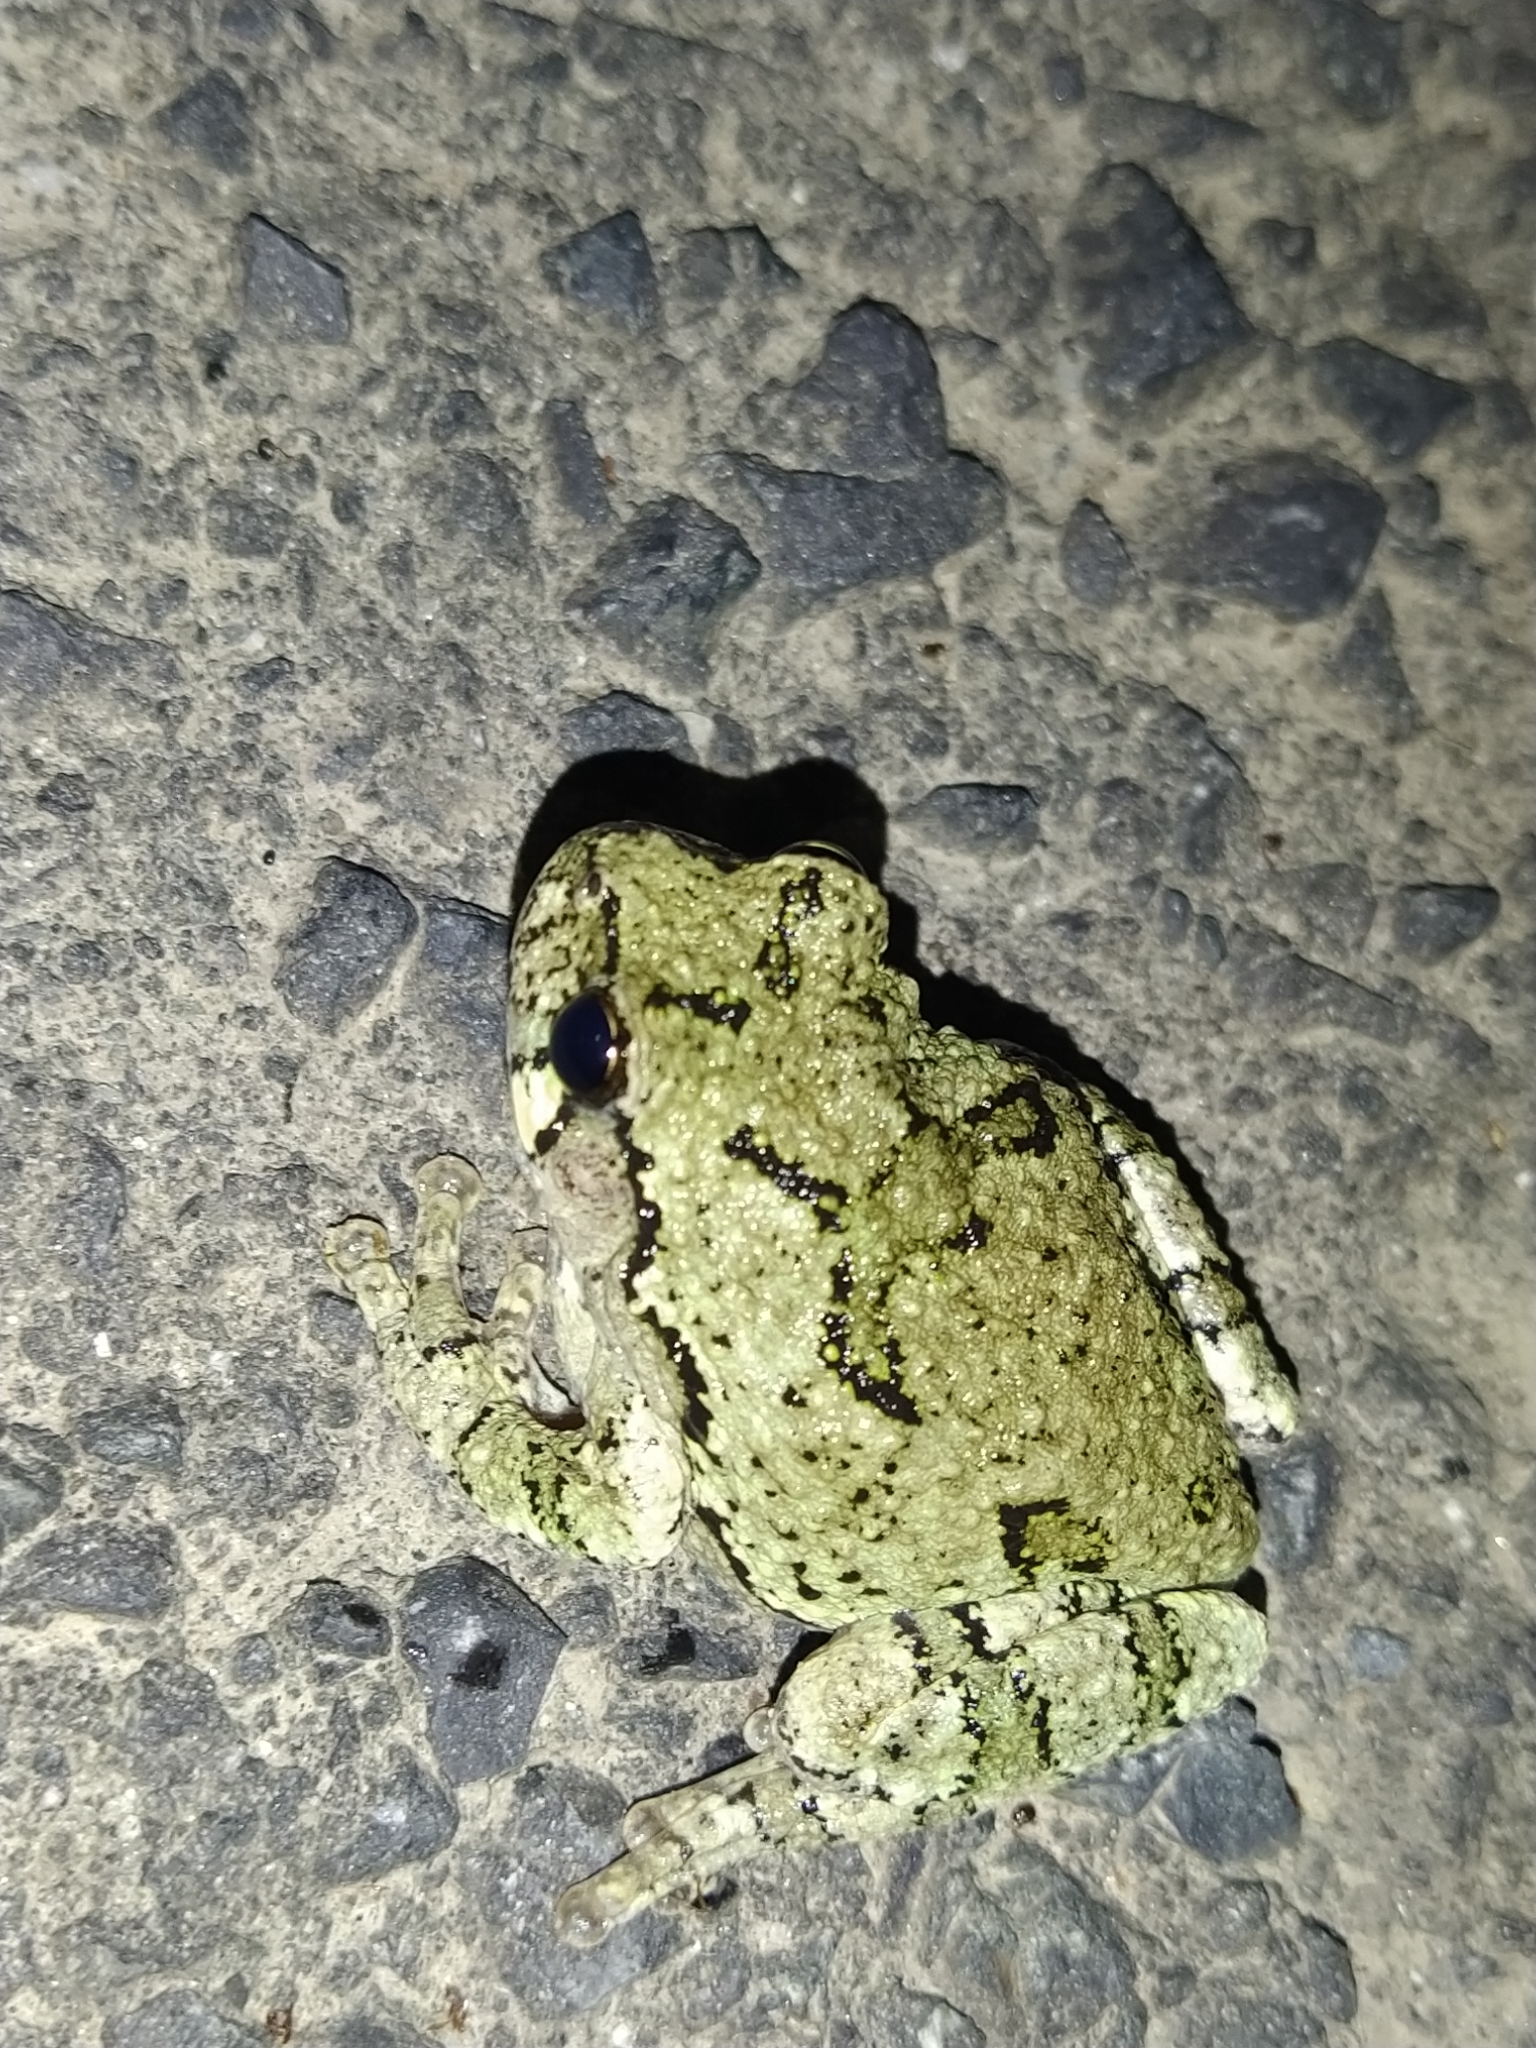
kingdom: Animalia
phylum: Chordata
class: Amphibia
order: Anura
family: Hylidae
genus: Dryophytes
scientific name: Dryophytes versicolor
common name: Gray treefrog
